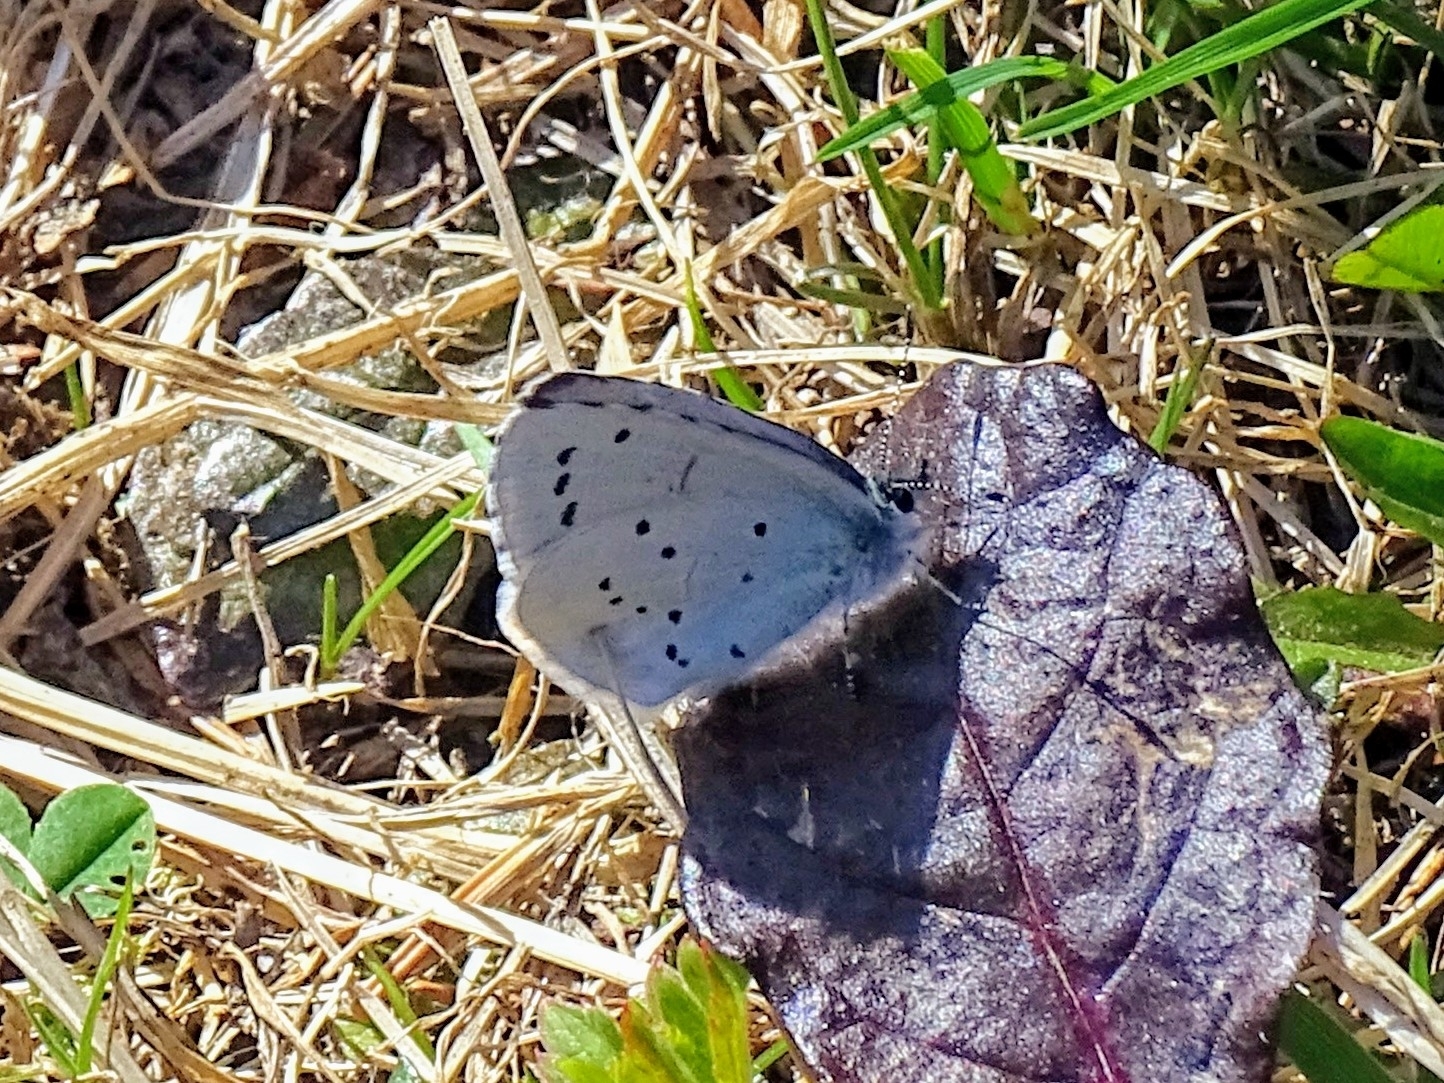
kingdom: Animalia
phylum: Arthropoda
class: Insecta
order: Lepidoptera
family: Lycaenidae
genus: Celastrina
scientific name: Celastrina argiolus
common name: Holly blue
